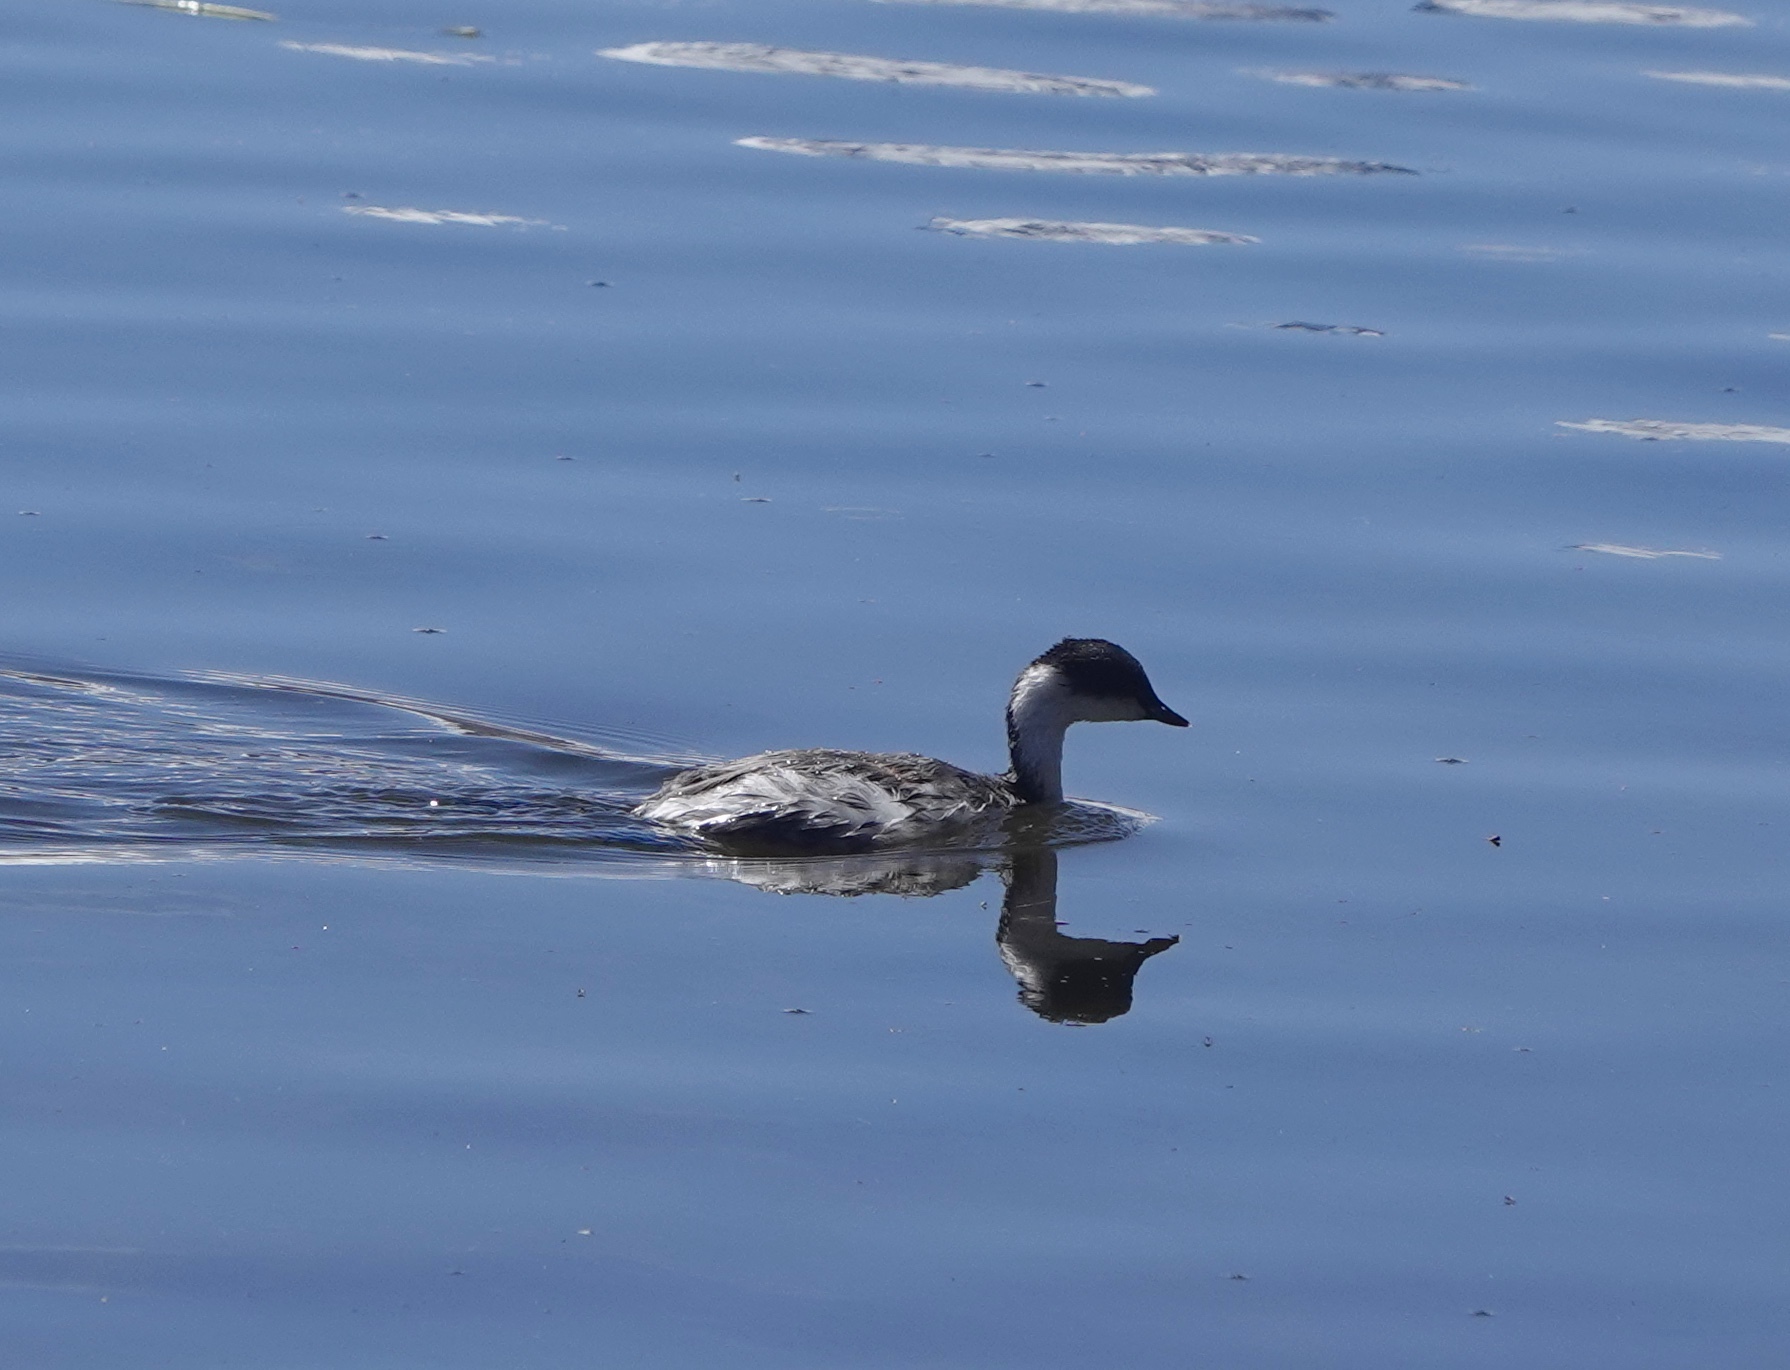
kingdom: Animalia
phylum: Chordata
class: Aves
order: Podicipediformes
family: Podicipedidae
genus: Podiceps
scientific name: Podiceps occipitalis
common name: Silvery grebe
